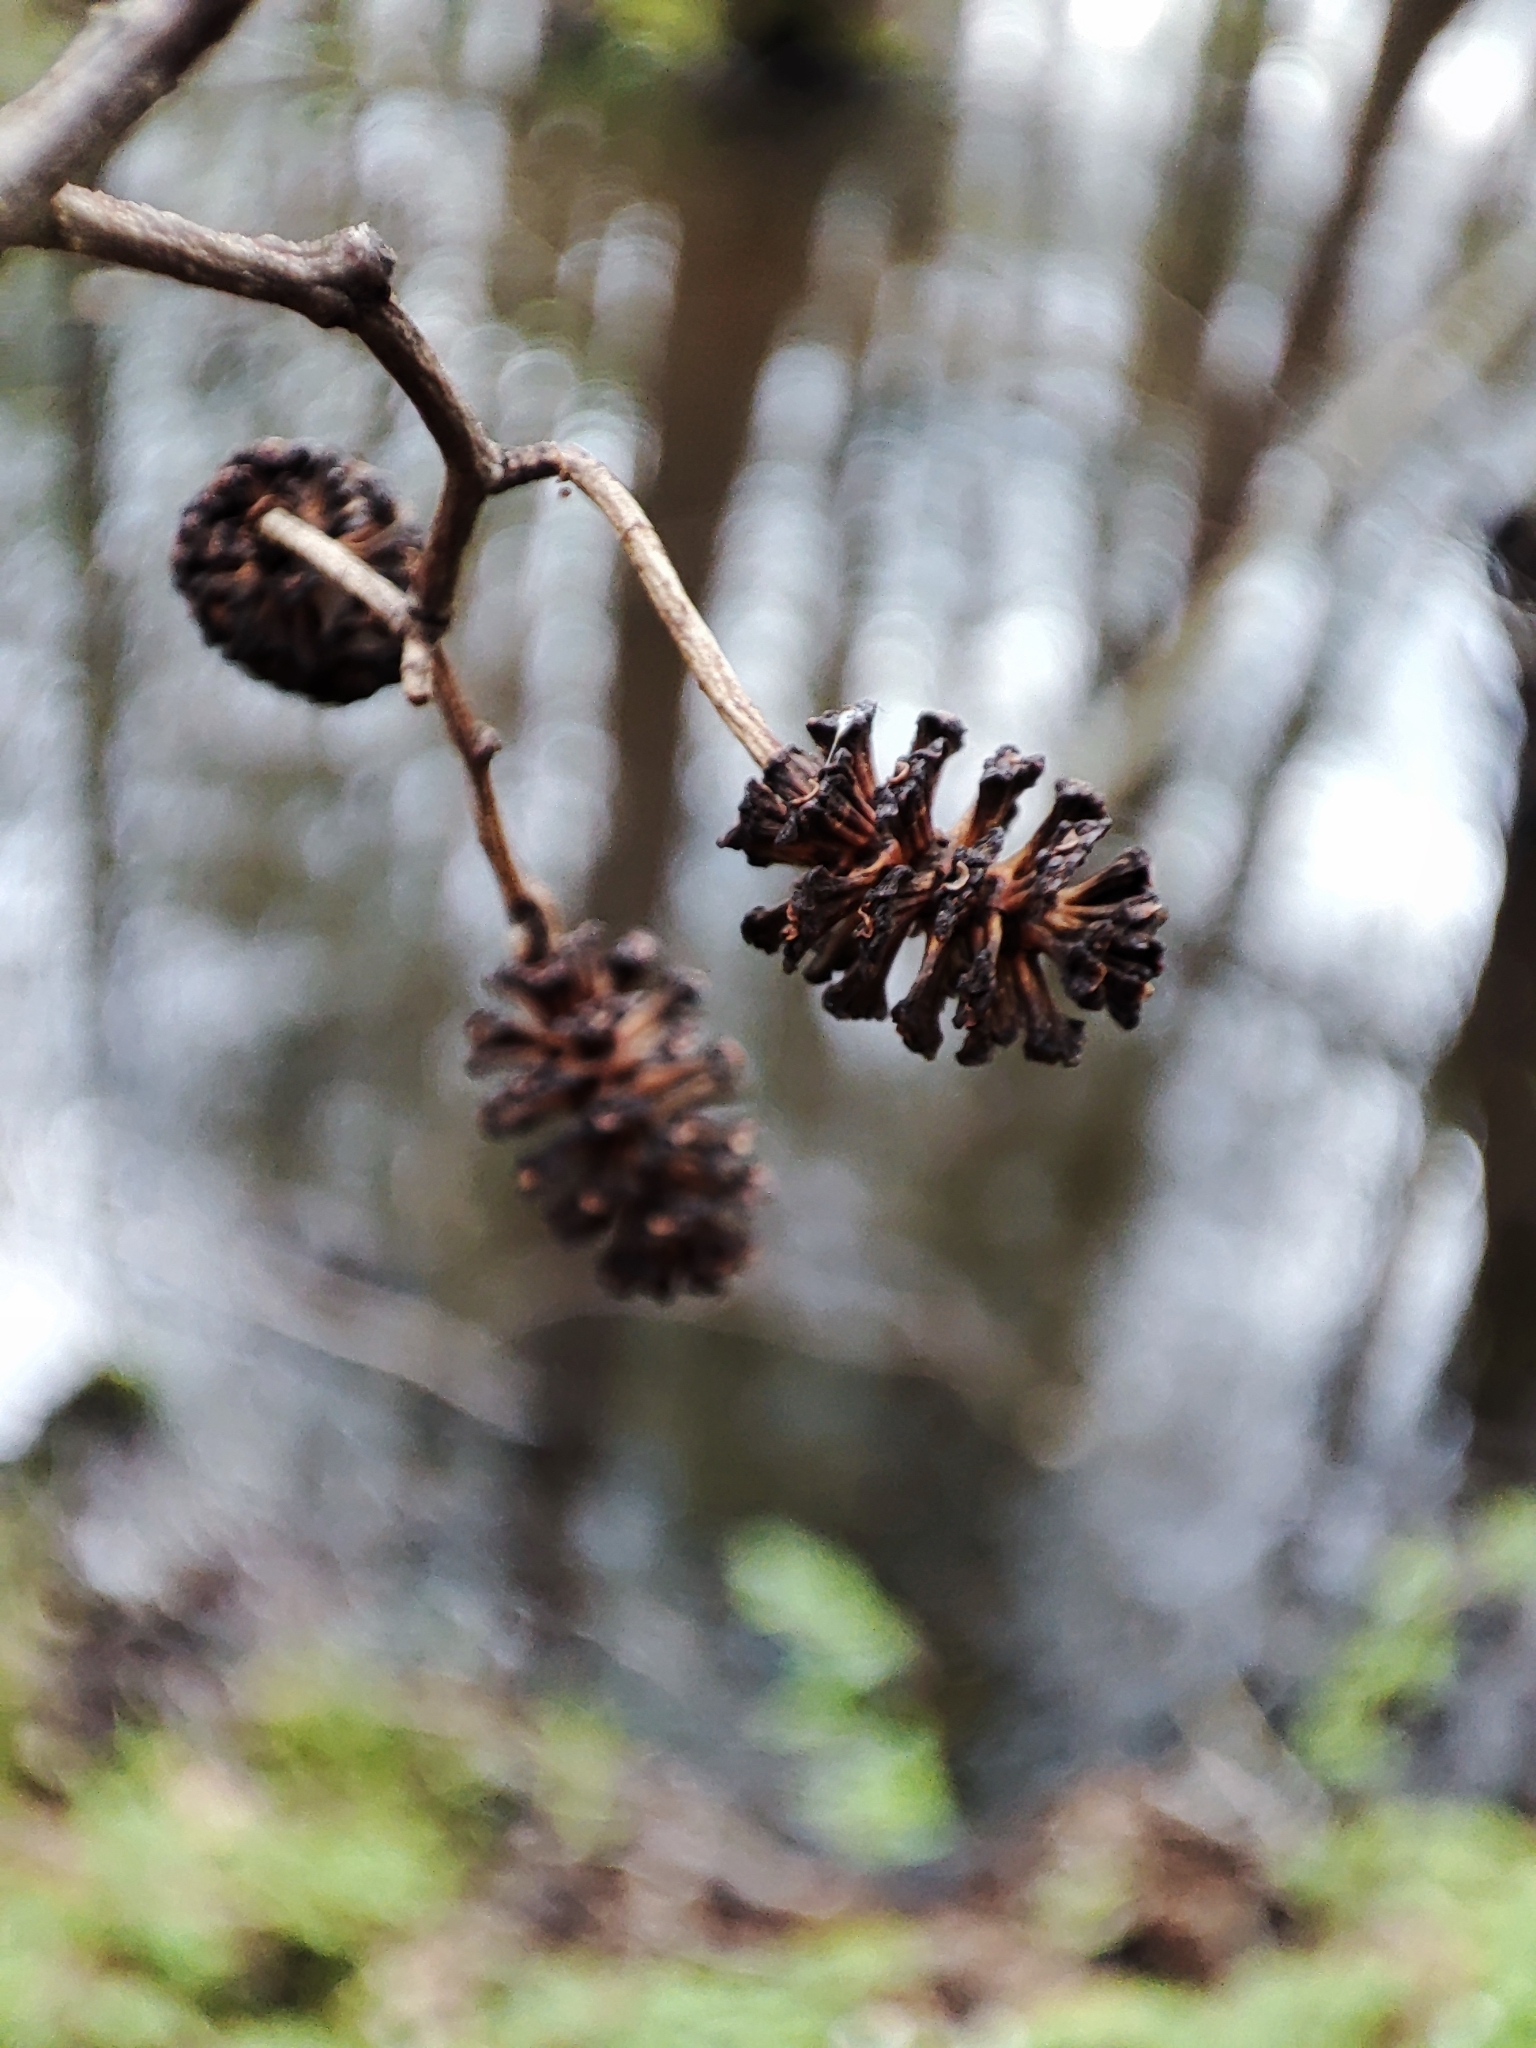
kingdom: Plantae
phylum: Tracheophyta
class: Magnoliopsida
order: Fagales
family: Betulaceae
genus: Alnus
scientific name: Alnus glutinosa
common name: Black alder
